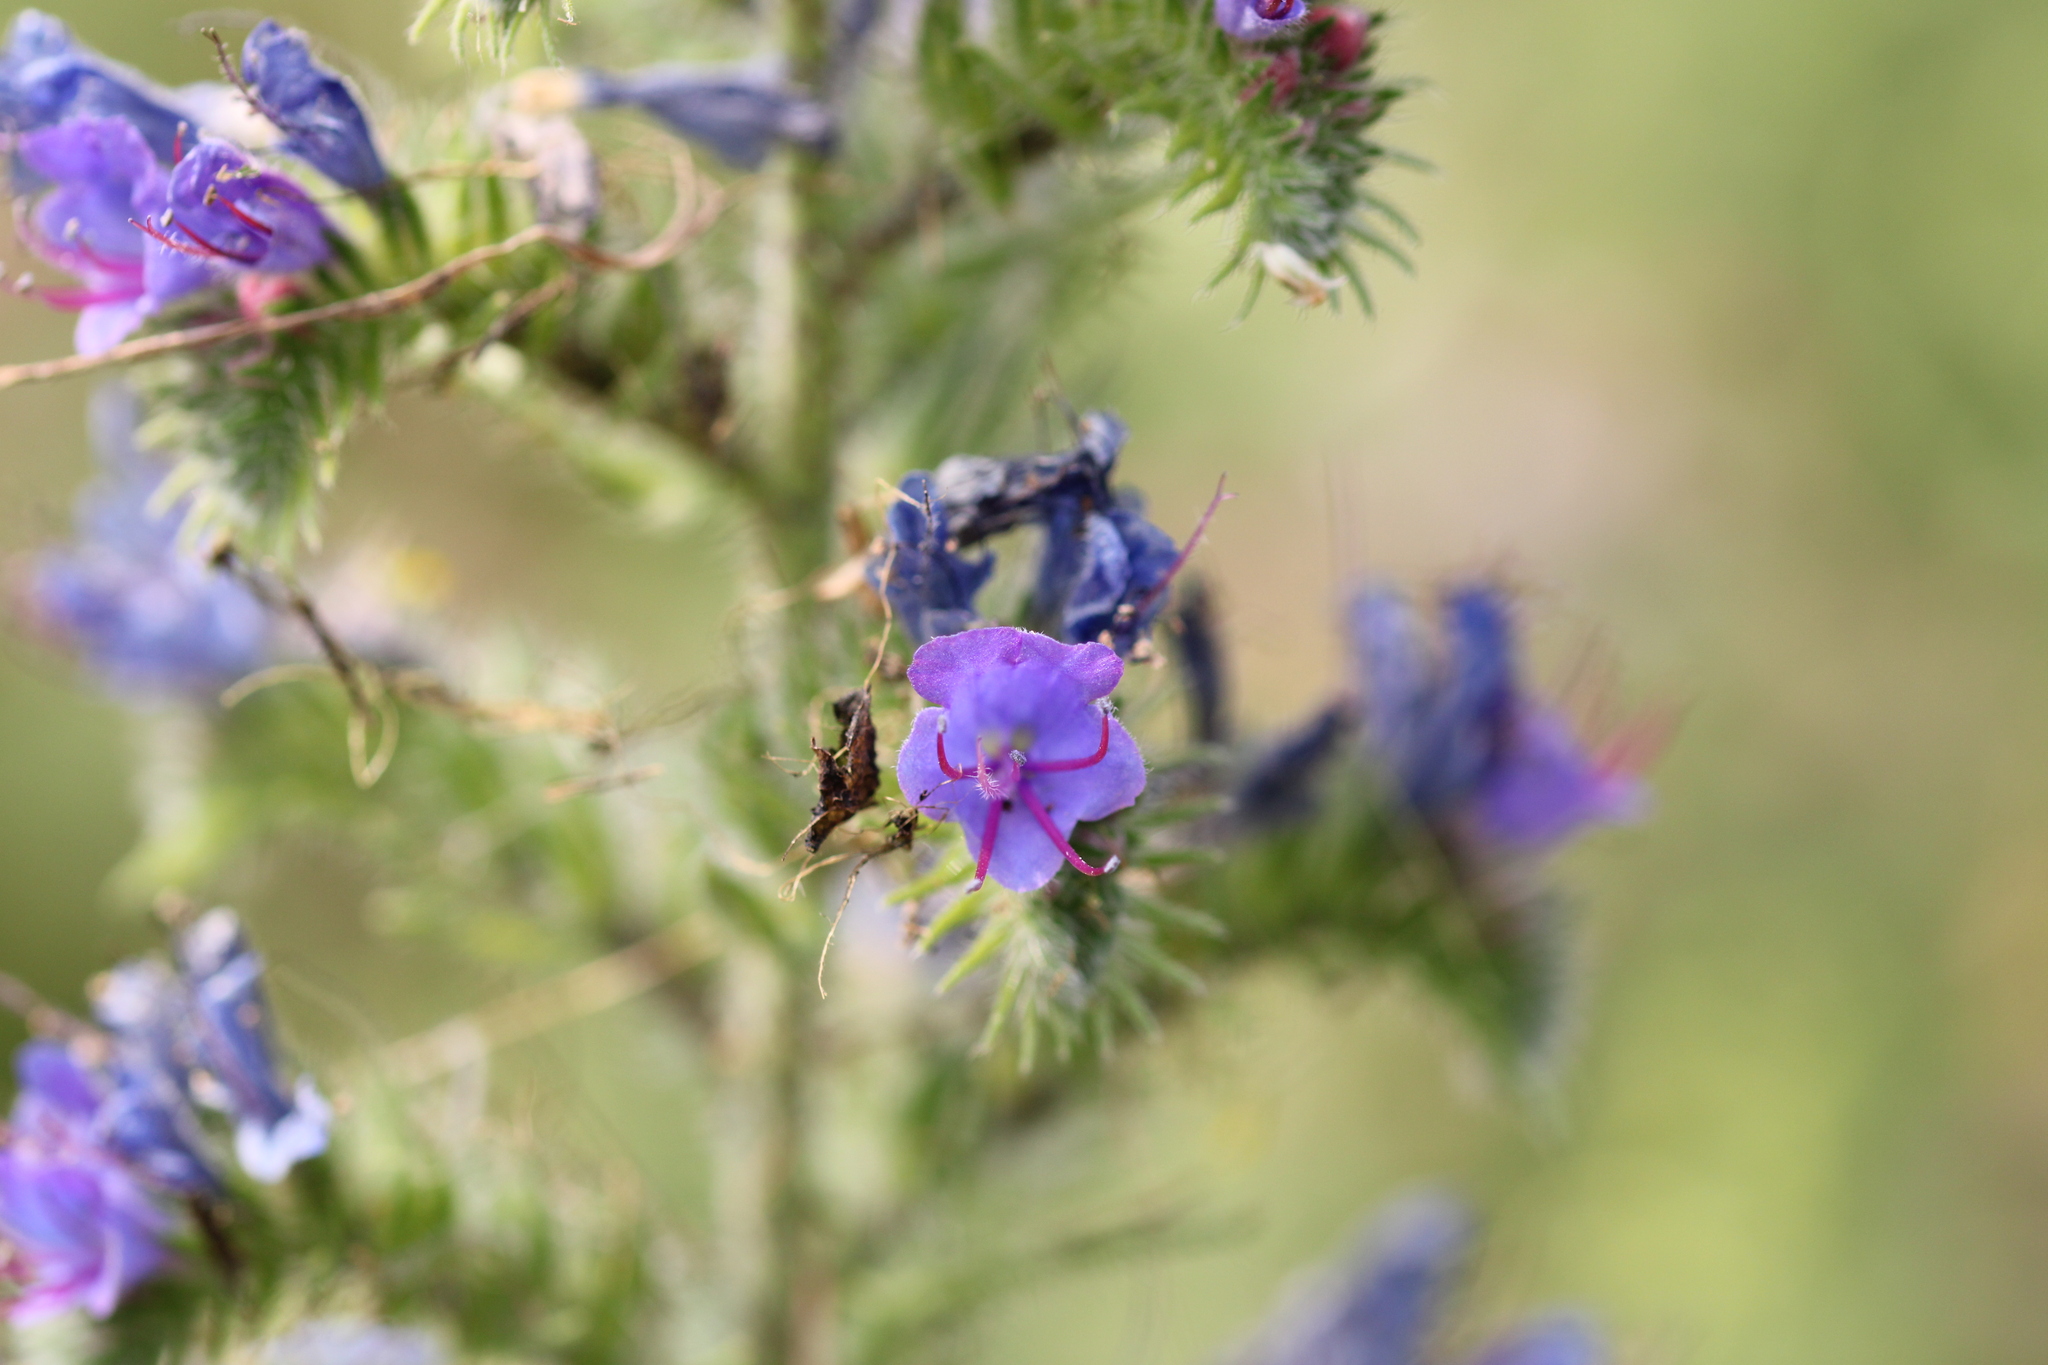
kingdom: Plantae
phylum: Tracheophyta
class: Magnoliopsida
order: Boraginales
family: Boraginaceae
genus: Echium
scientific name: Echium vulgare
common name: Common viper's bugloss
